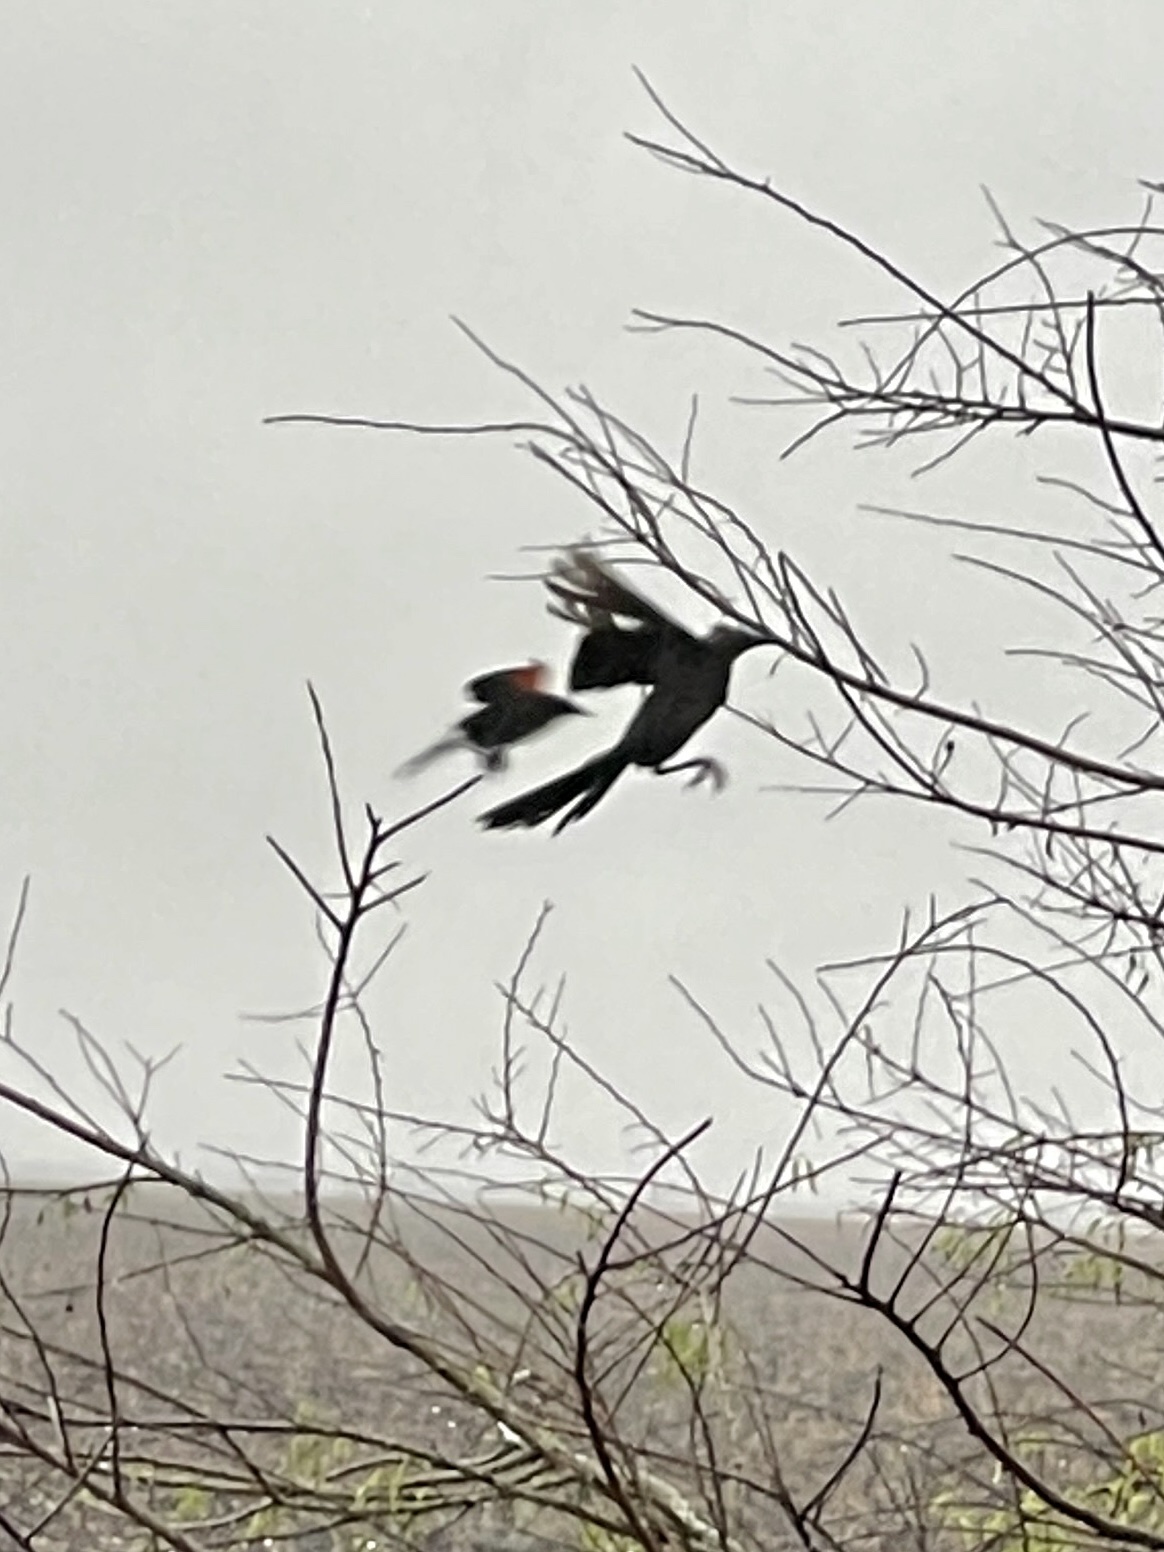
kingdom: Animalia
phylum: Chordata
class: Aves
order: Passeriformes
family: Icteridae
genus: Quiscalus
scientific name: Quiscalus mexicanus
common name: Great-tailed grackle
